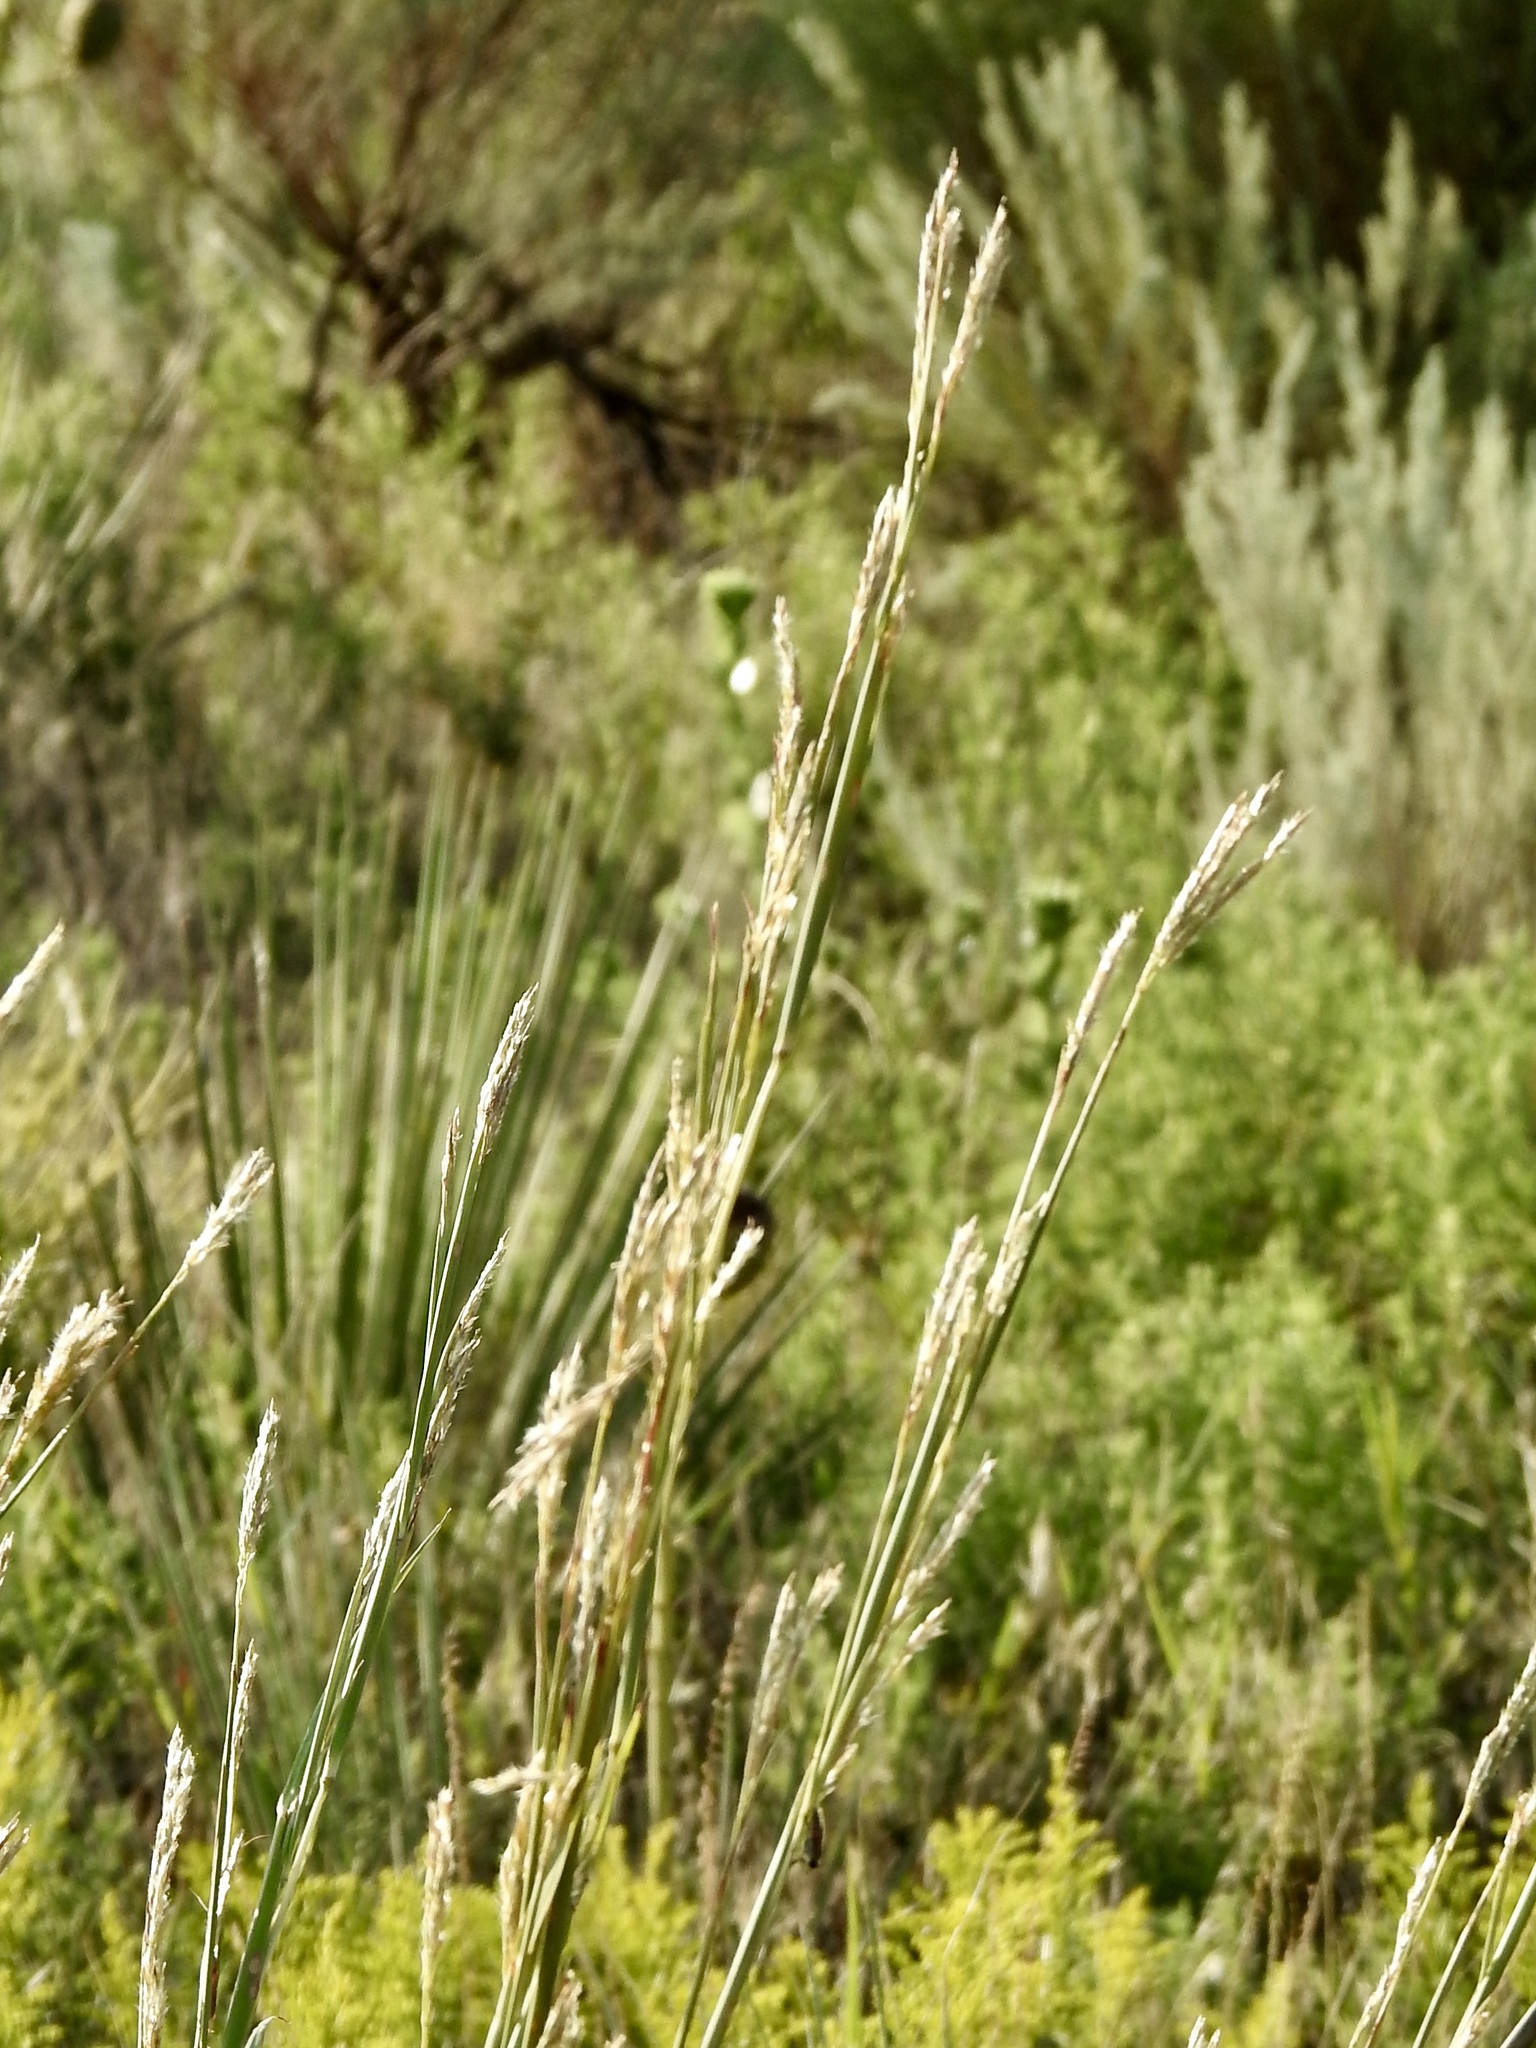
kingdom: Plantae
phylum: Tracheophyta
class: Liliopsida
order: Poales
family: Poaceae
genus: Andropogon
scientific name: Andropogon hallii
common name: Sand bluestem
